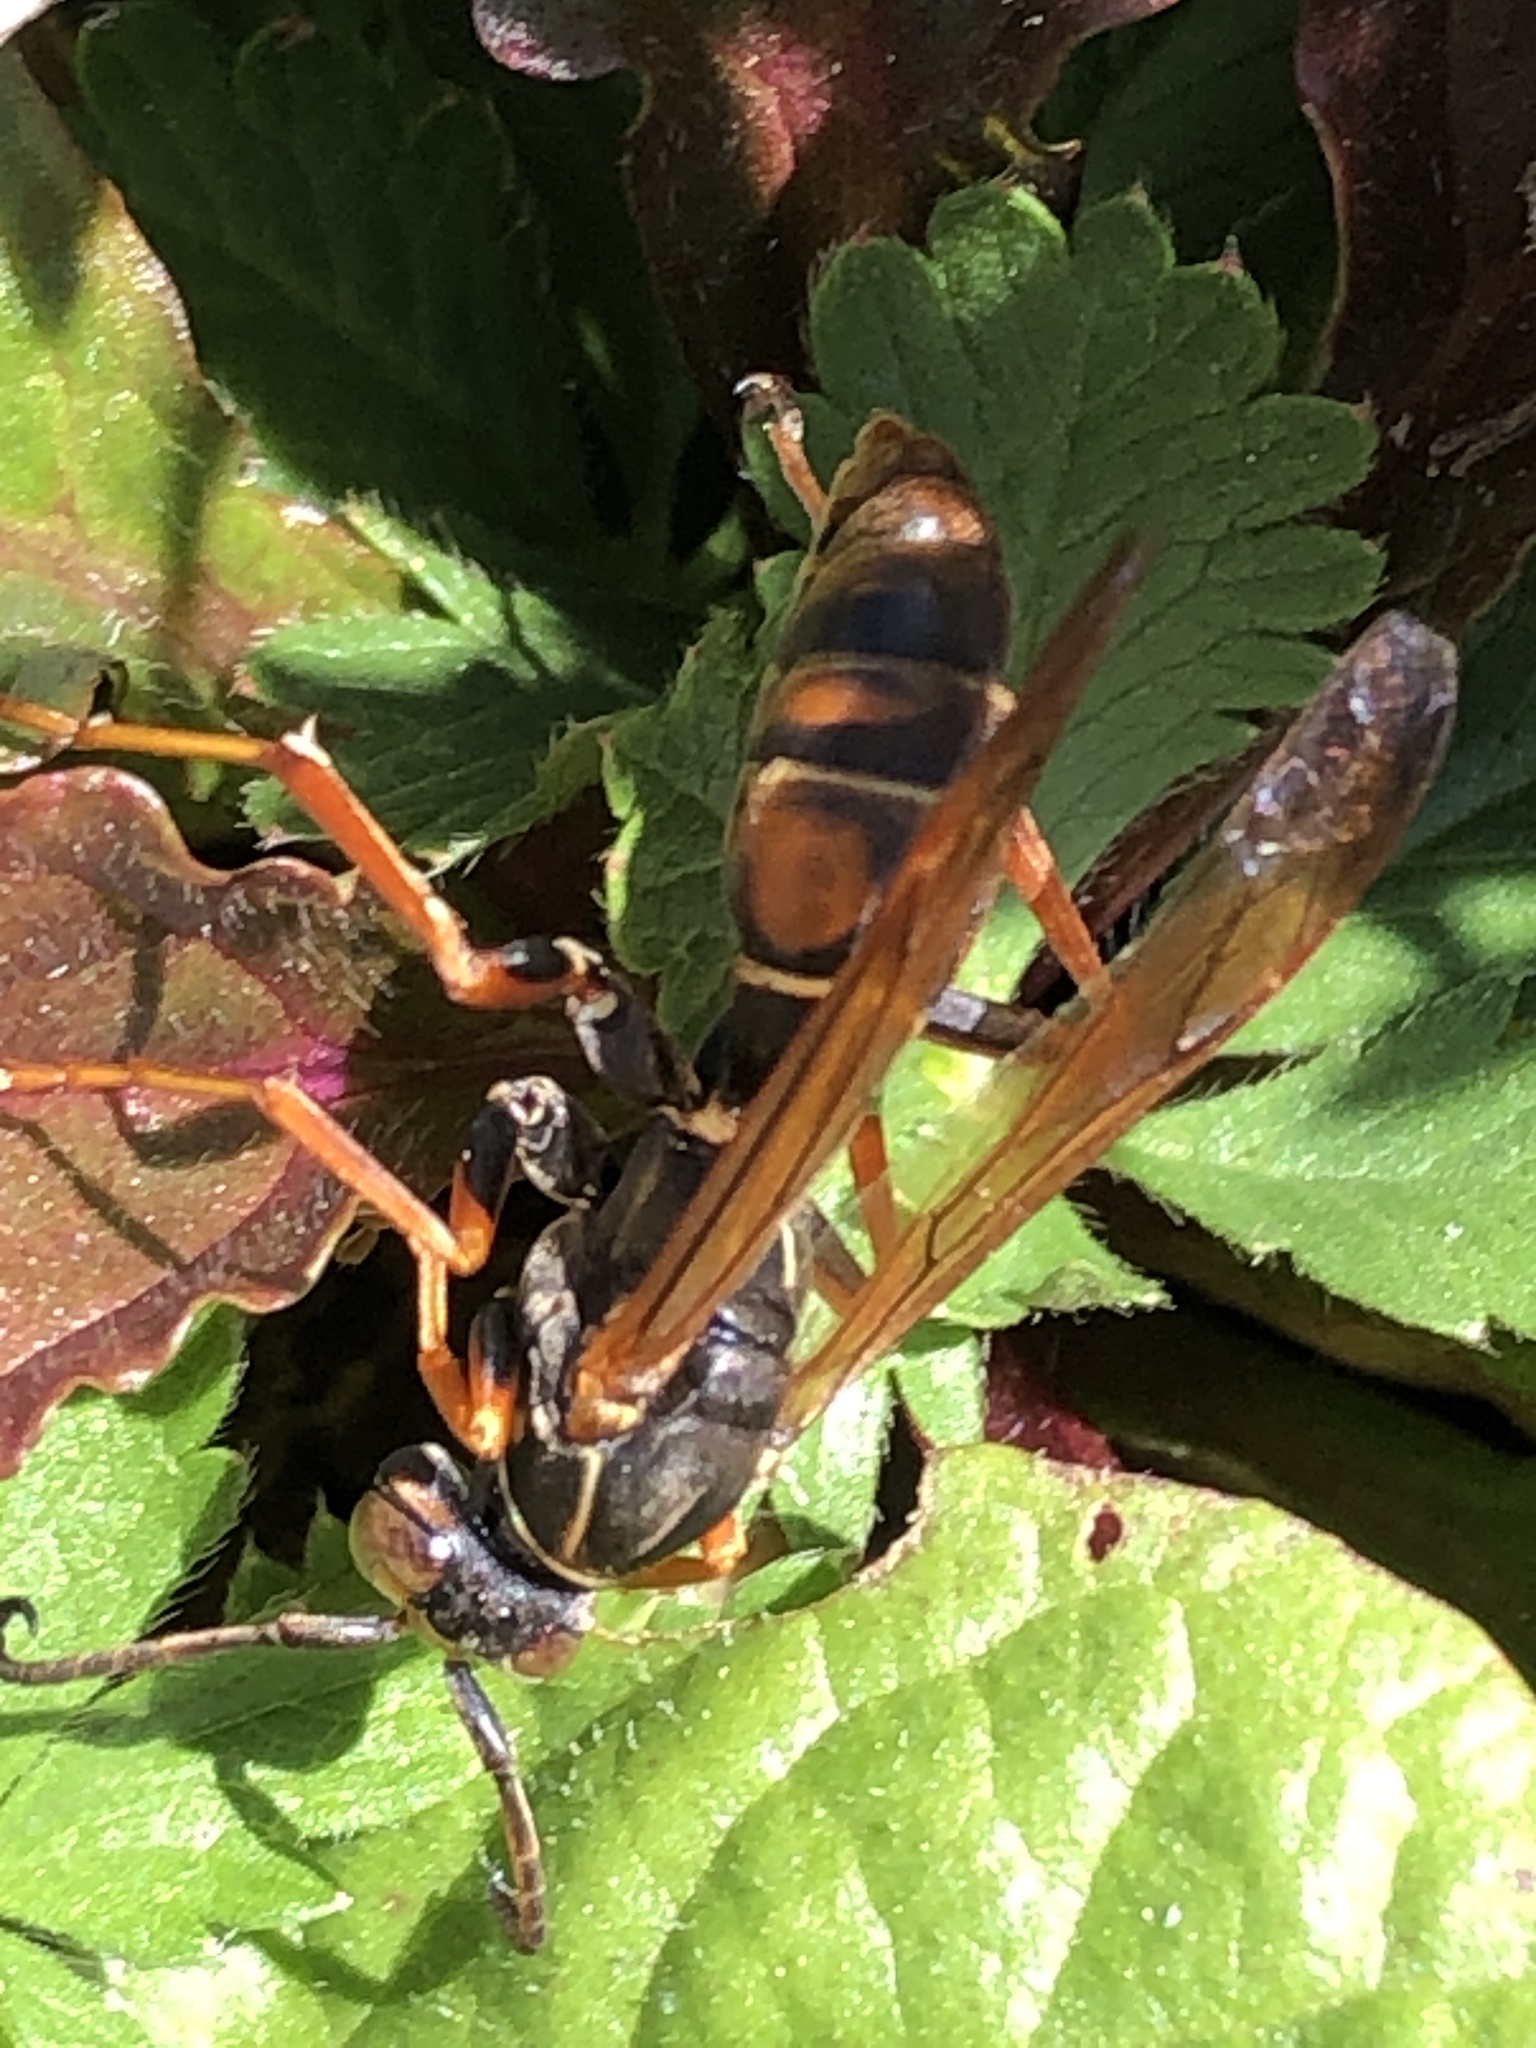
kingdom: Animalia
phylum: Arthropoda
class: Insecta
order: Hymenoptera
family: Eumenidae
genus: Polistes
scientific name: Polistes fuscatus
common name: Dark paper wasp
